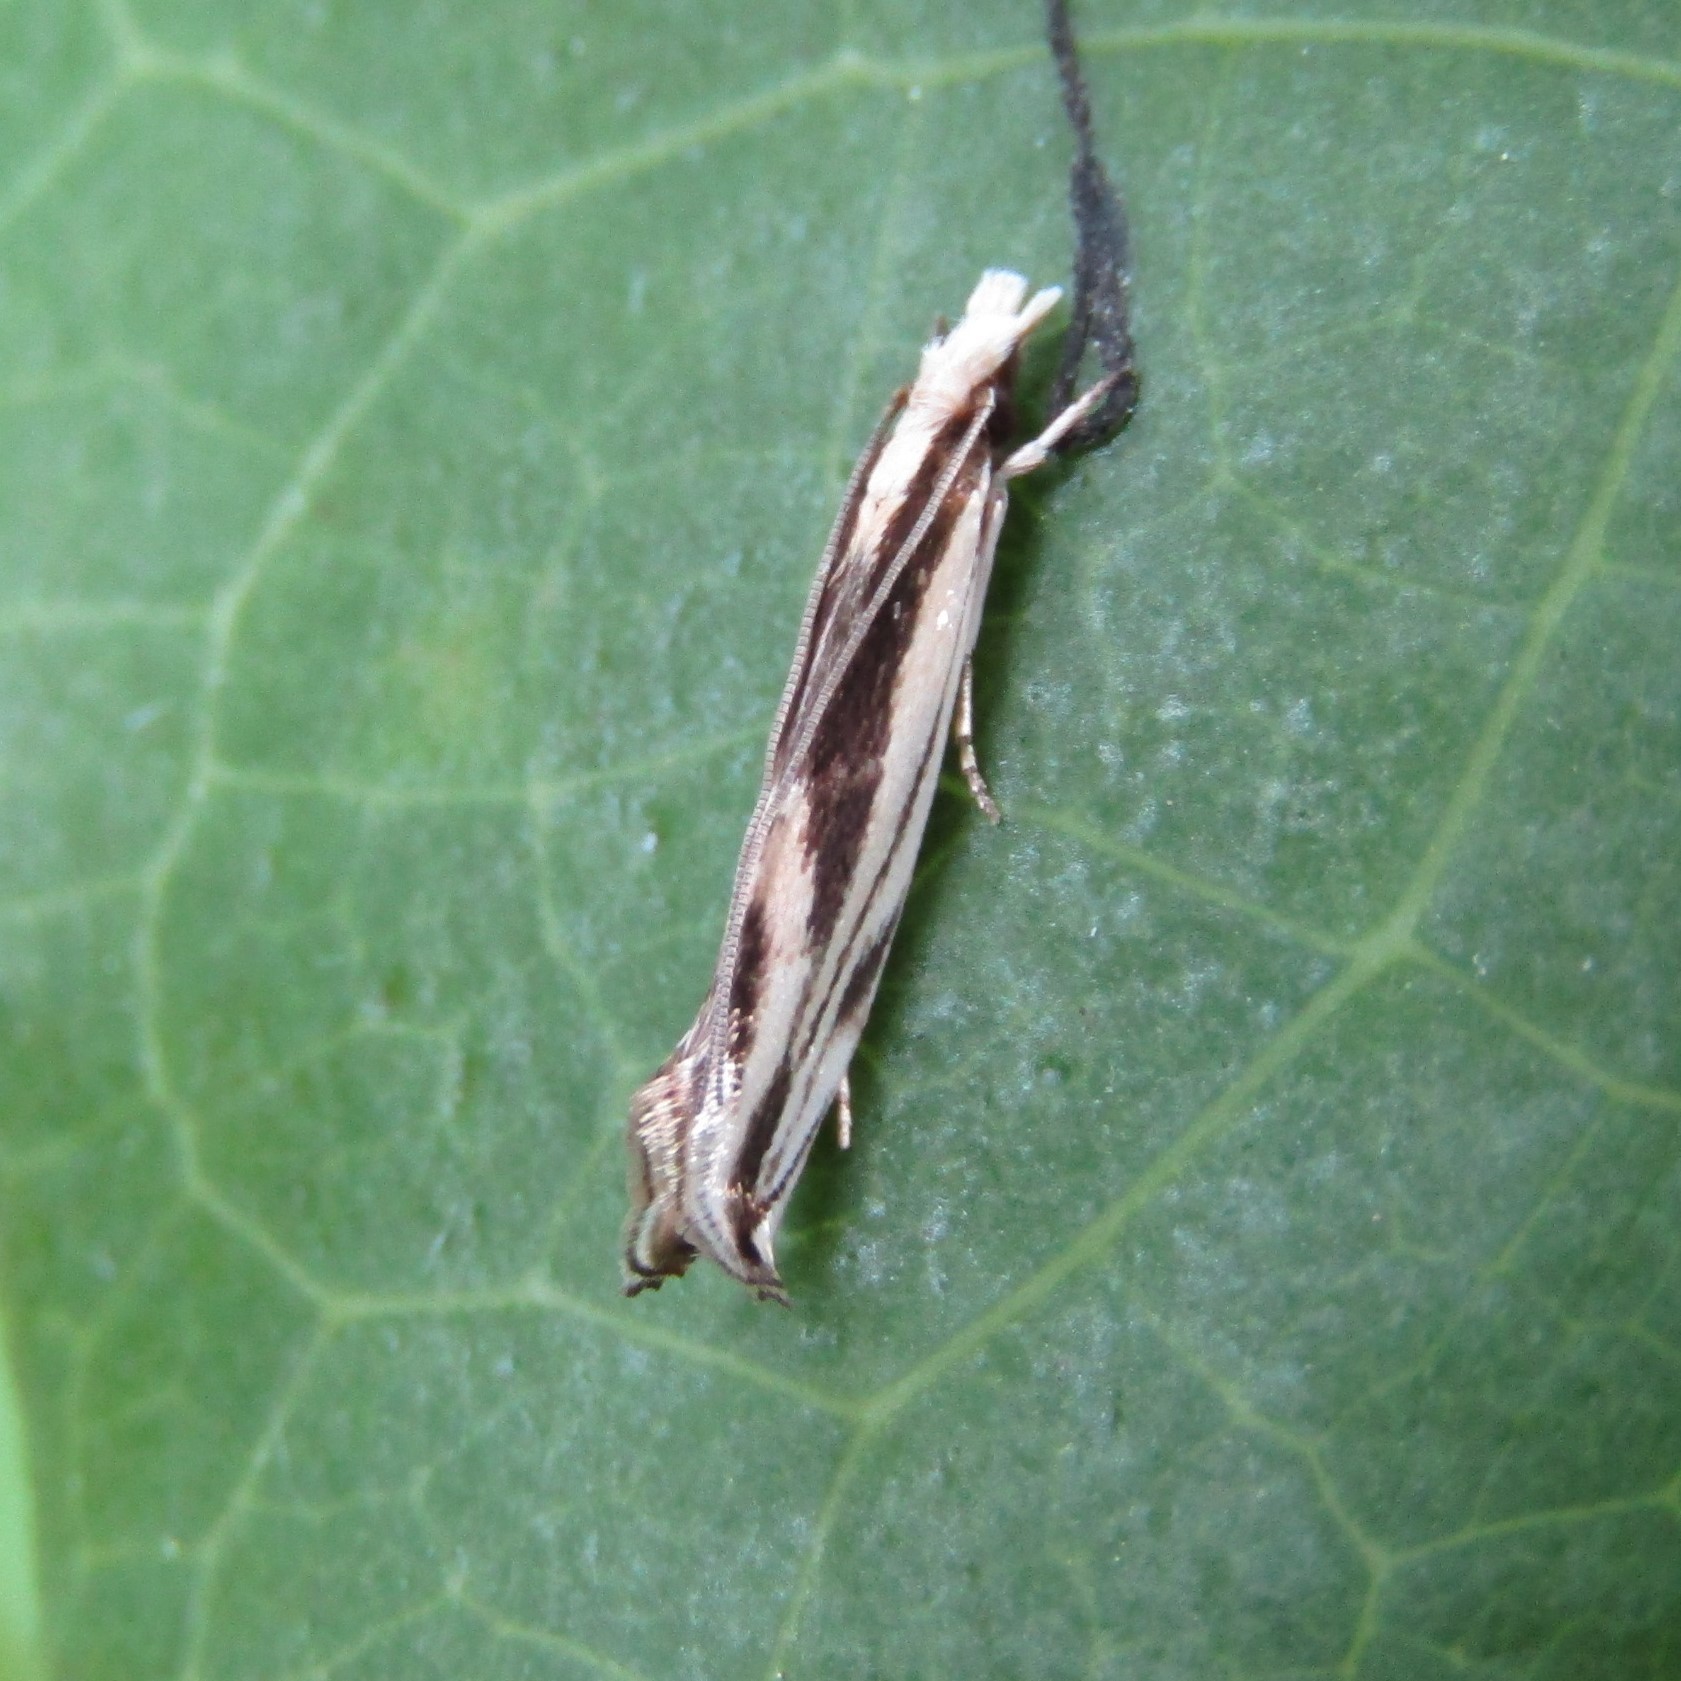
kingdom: Animalia
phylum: Arthropoda
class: Insecta
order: Lepidoptera
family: Tineidae
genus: Erechthias
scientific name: Erechthias chasmatias
